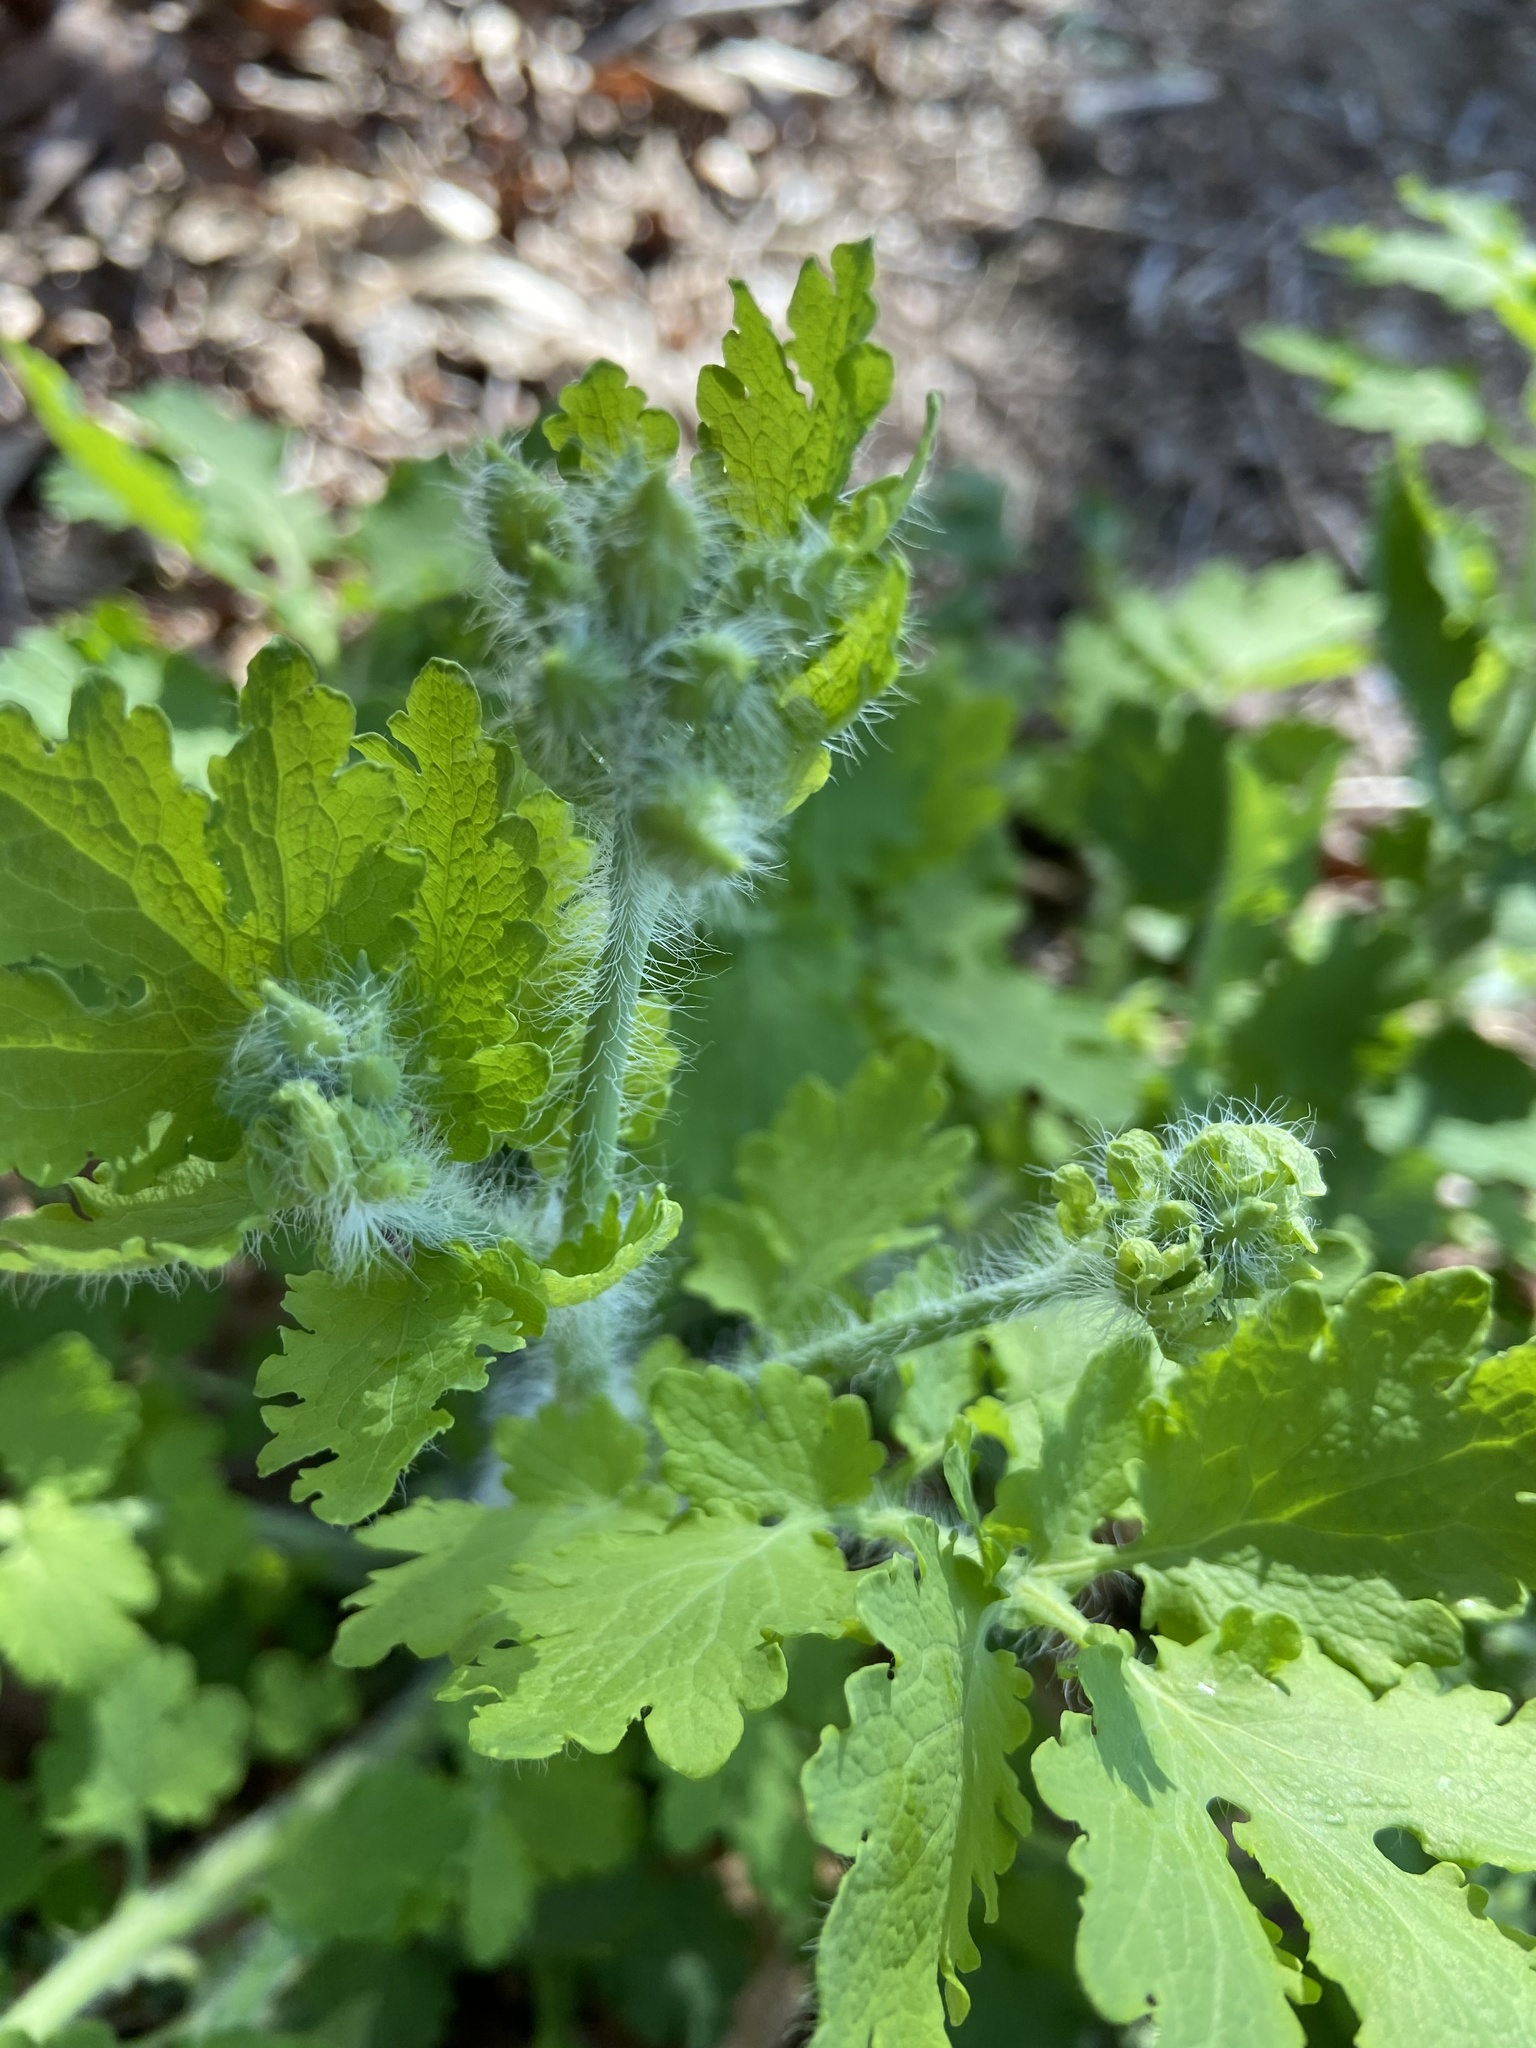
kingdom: Plantae
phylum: Tracheophyta
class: Magnoliopsida
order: Ranunculales
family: Papaveraceae
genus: Chelidonium
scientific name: Chelidonium majus
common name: Greater celandine
